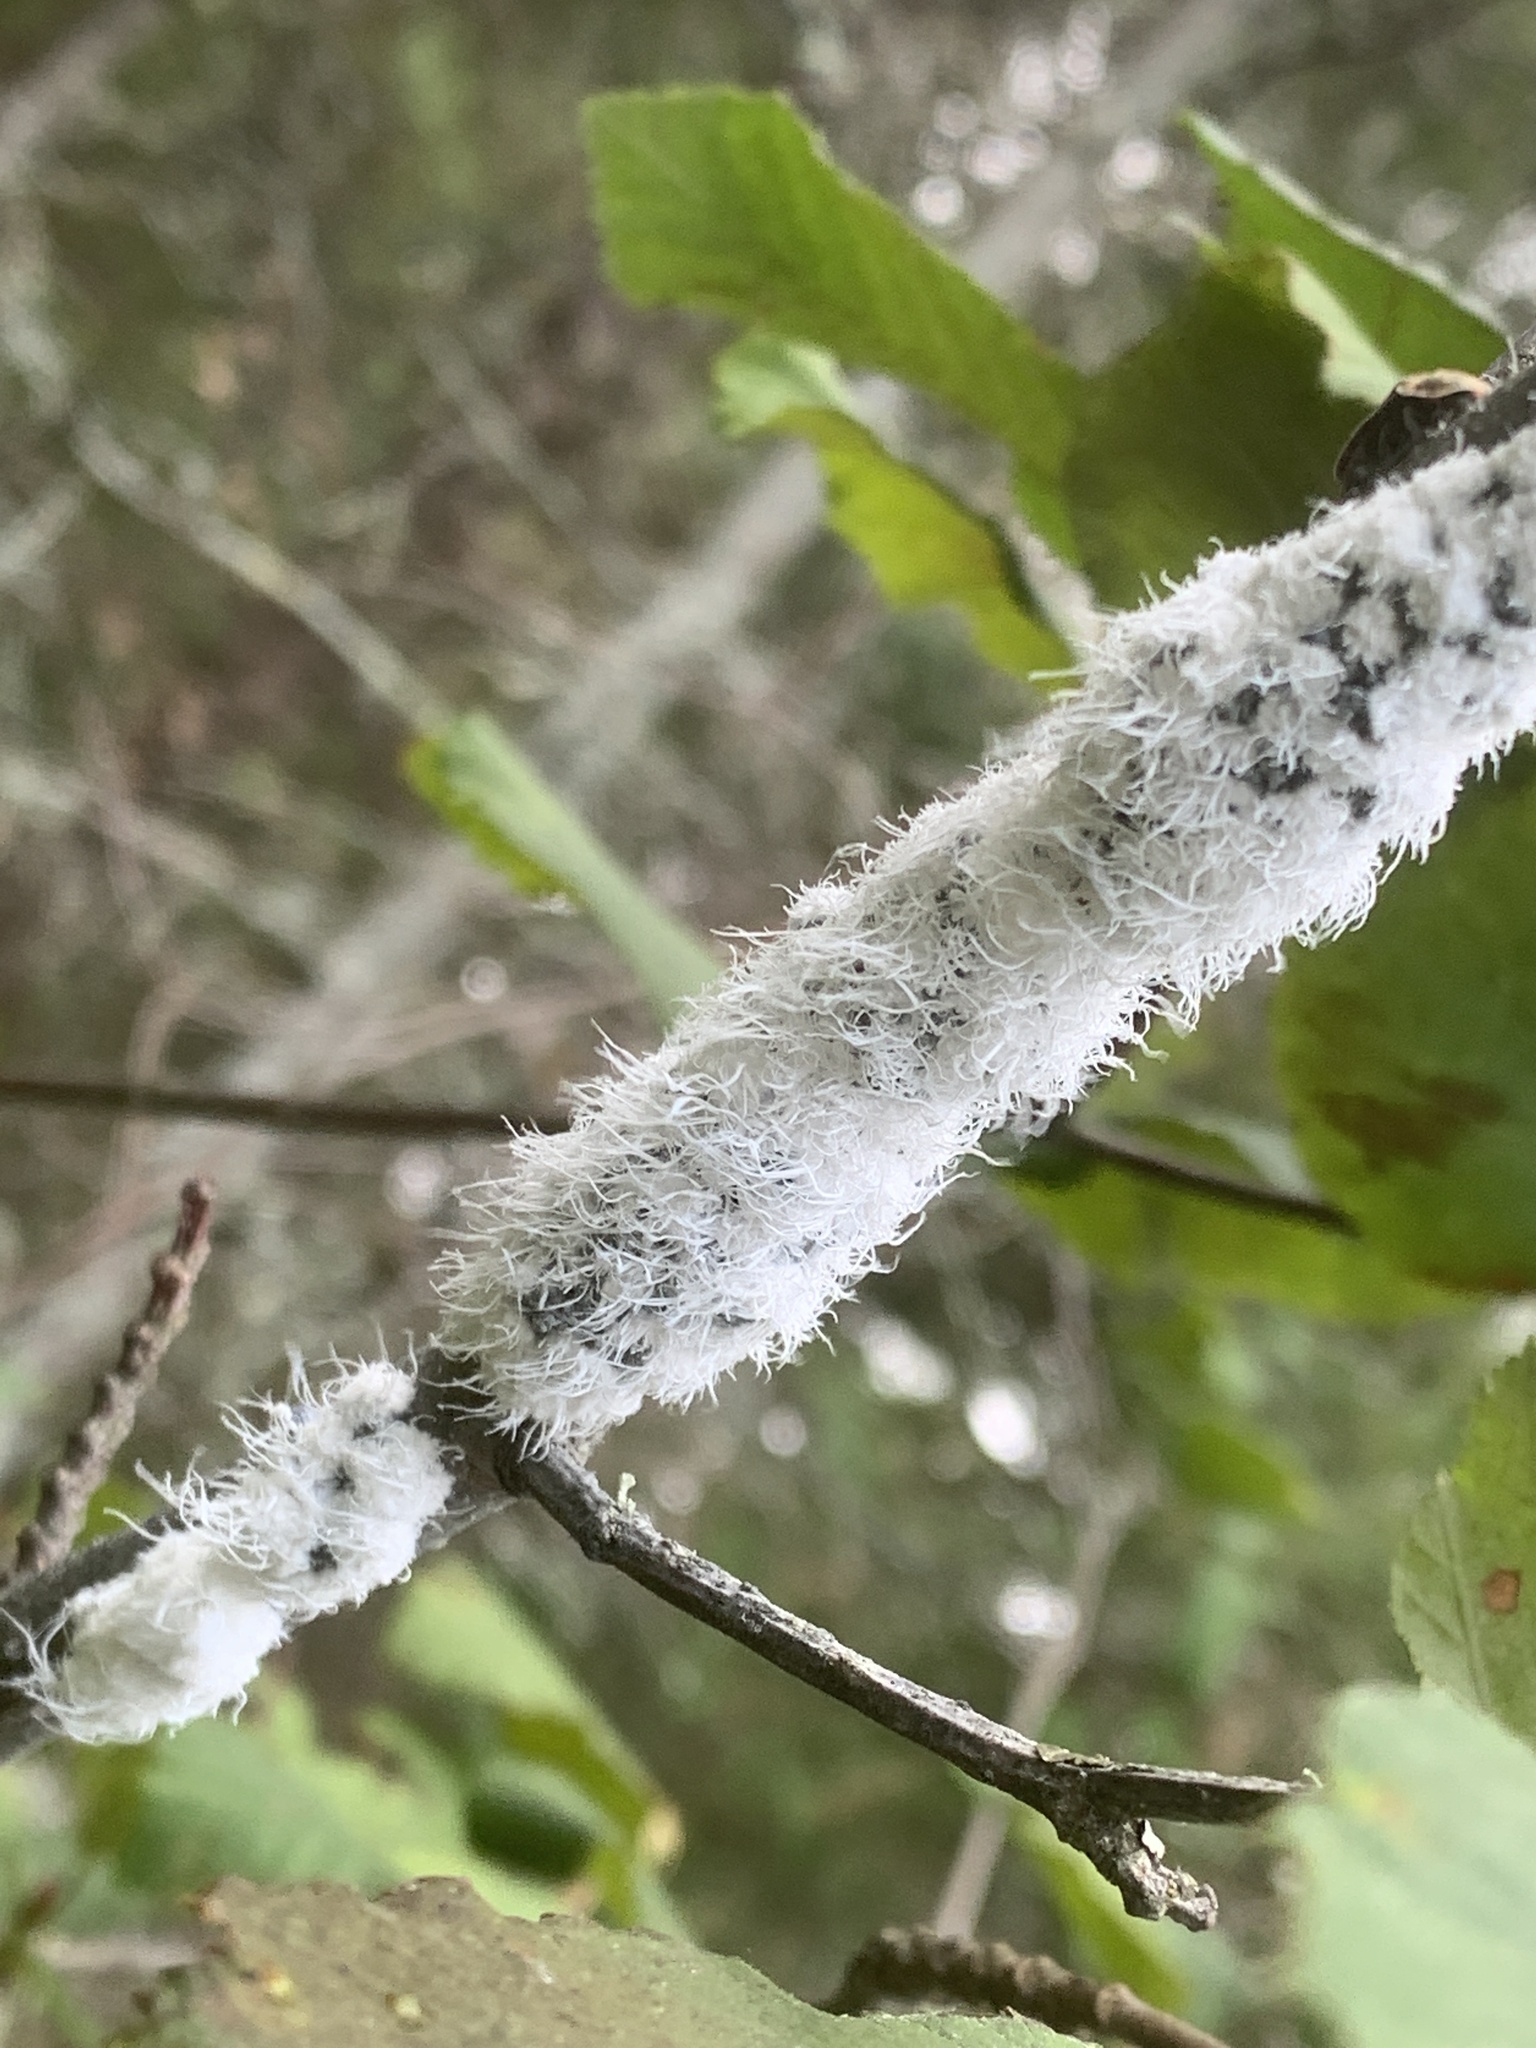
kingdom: Animalia
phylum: Arthropoda
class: Insecta
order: Hemiptera
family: Aphididae
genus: Prociphilus
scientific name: Prociphilus tessellatus
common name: Woolly alder aphid
